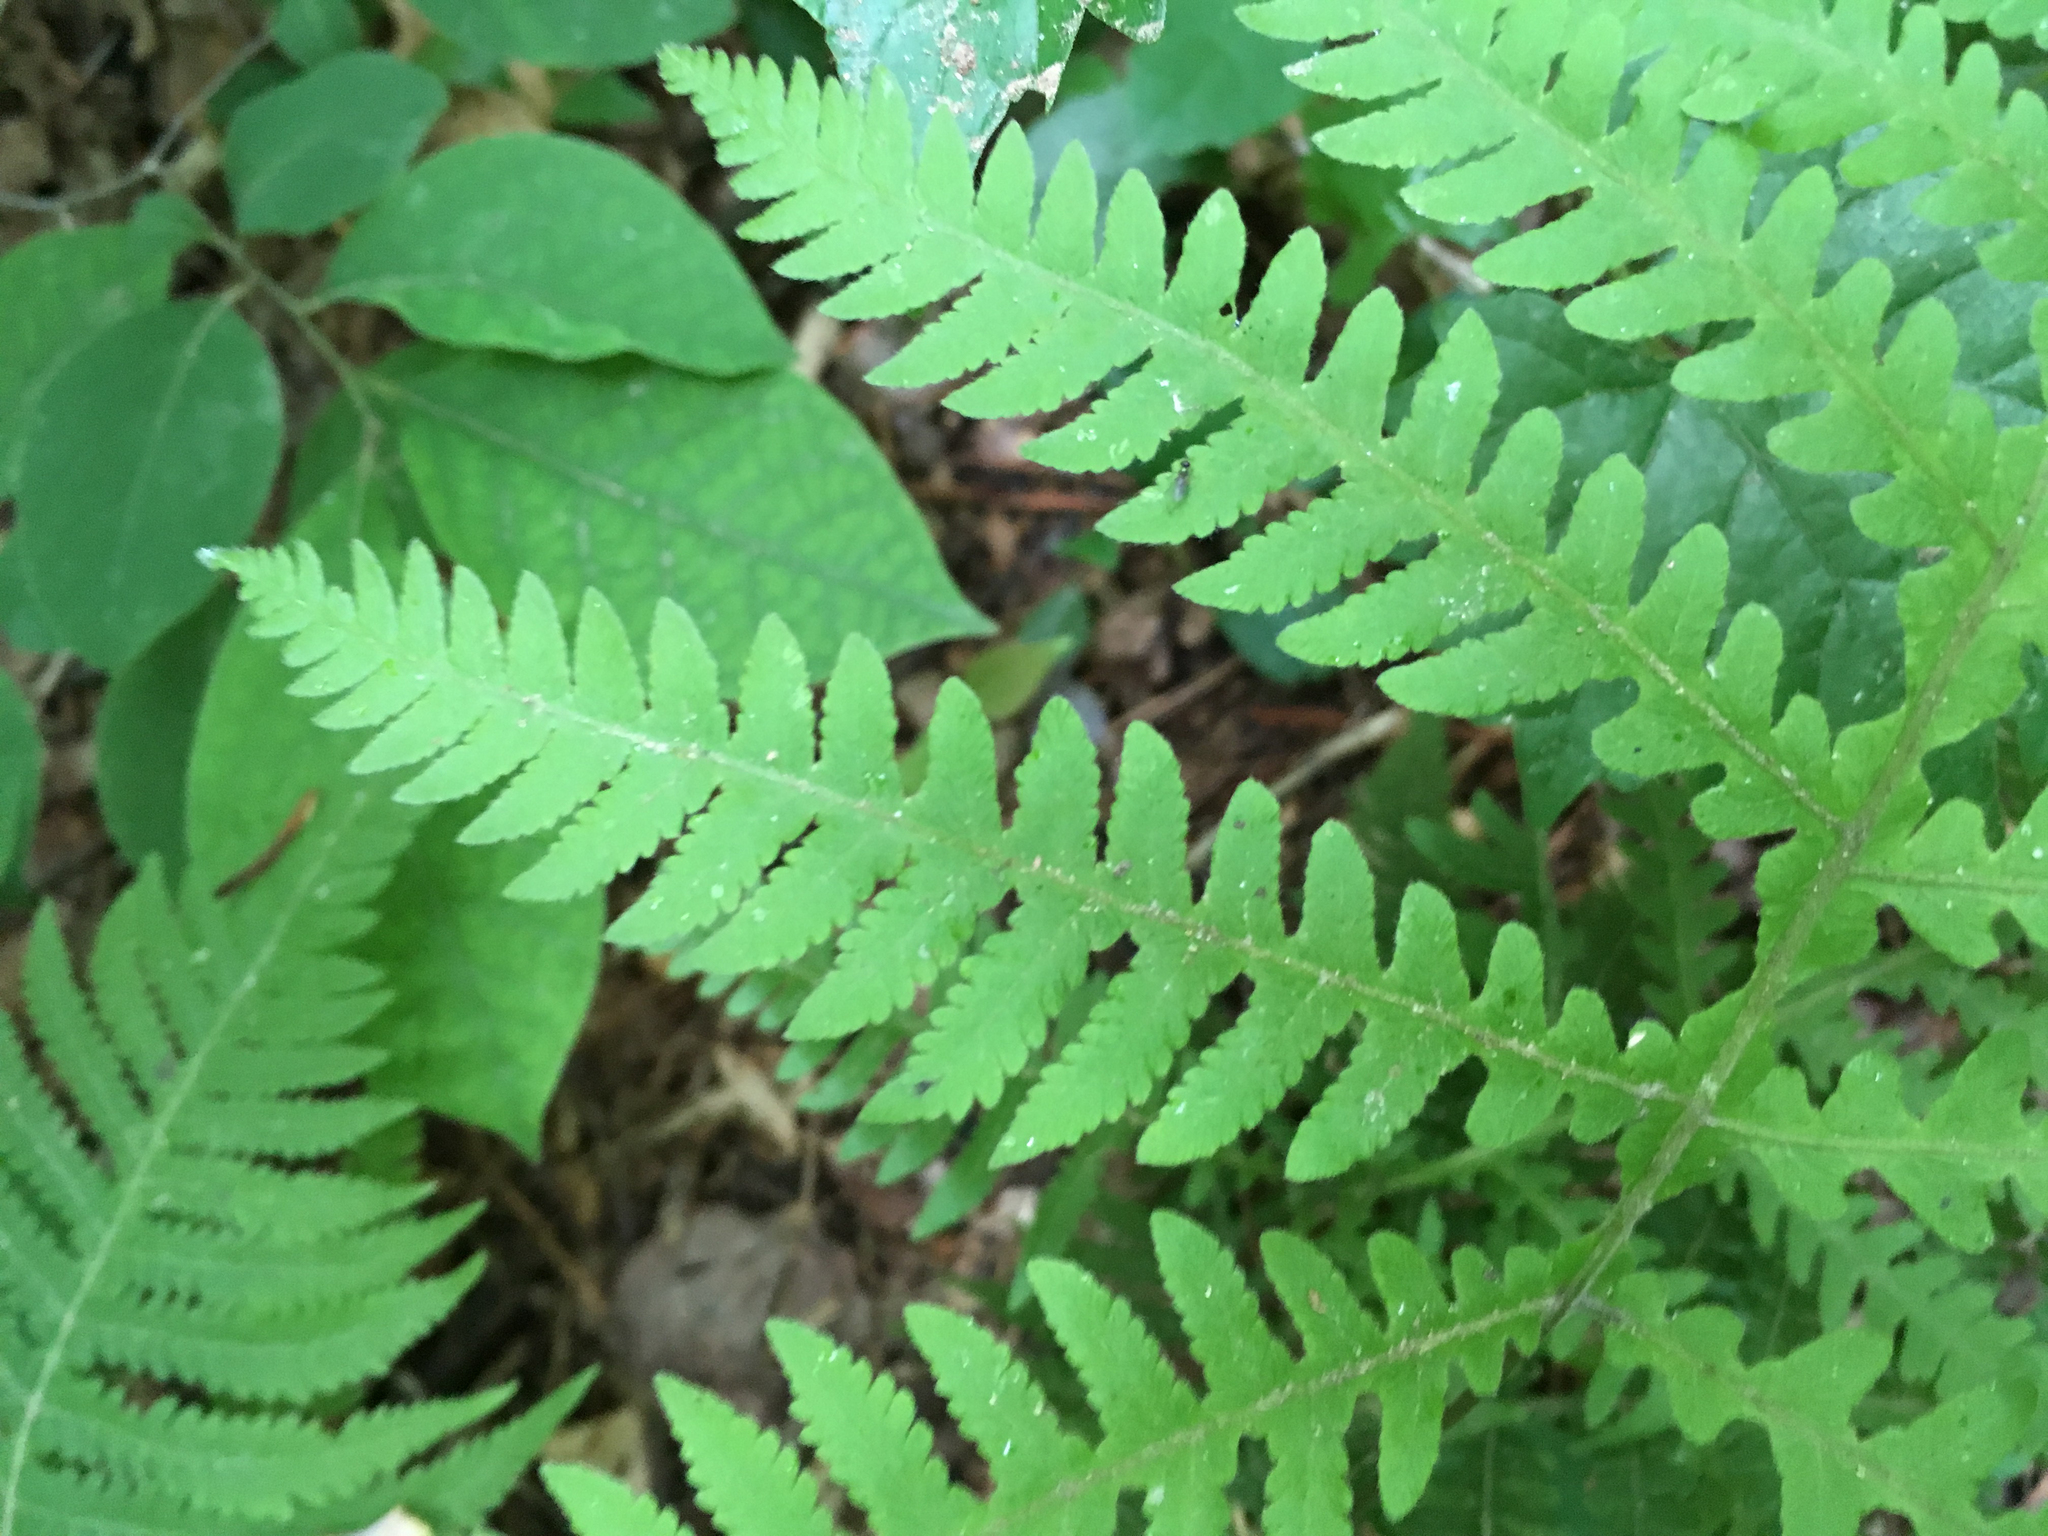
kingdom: Plantae
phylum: Tracheophyta
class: Polypodiopsida
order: Polypodiales
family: Thelypteridaceae
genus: Phegopteris
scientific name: Phegopteris hexagonoptera
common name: Broad beech fern
